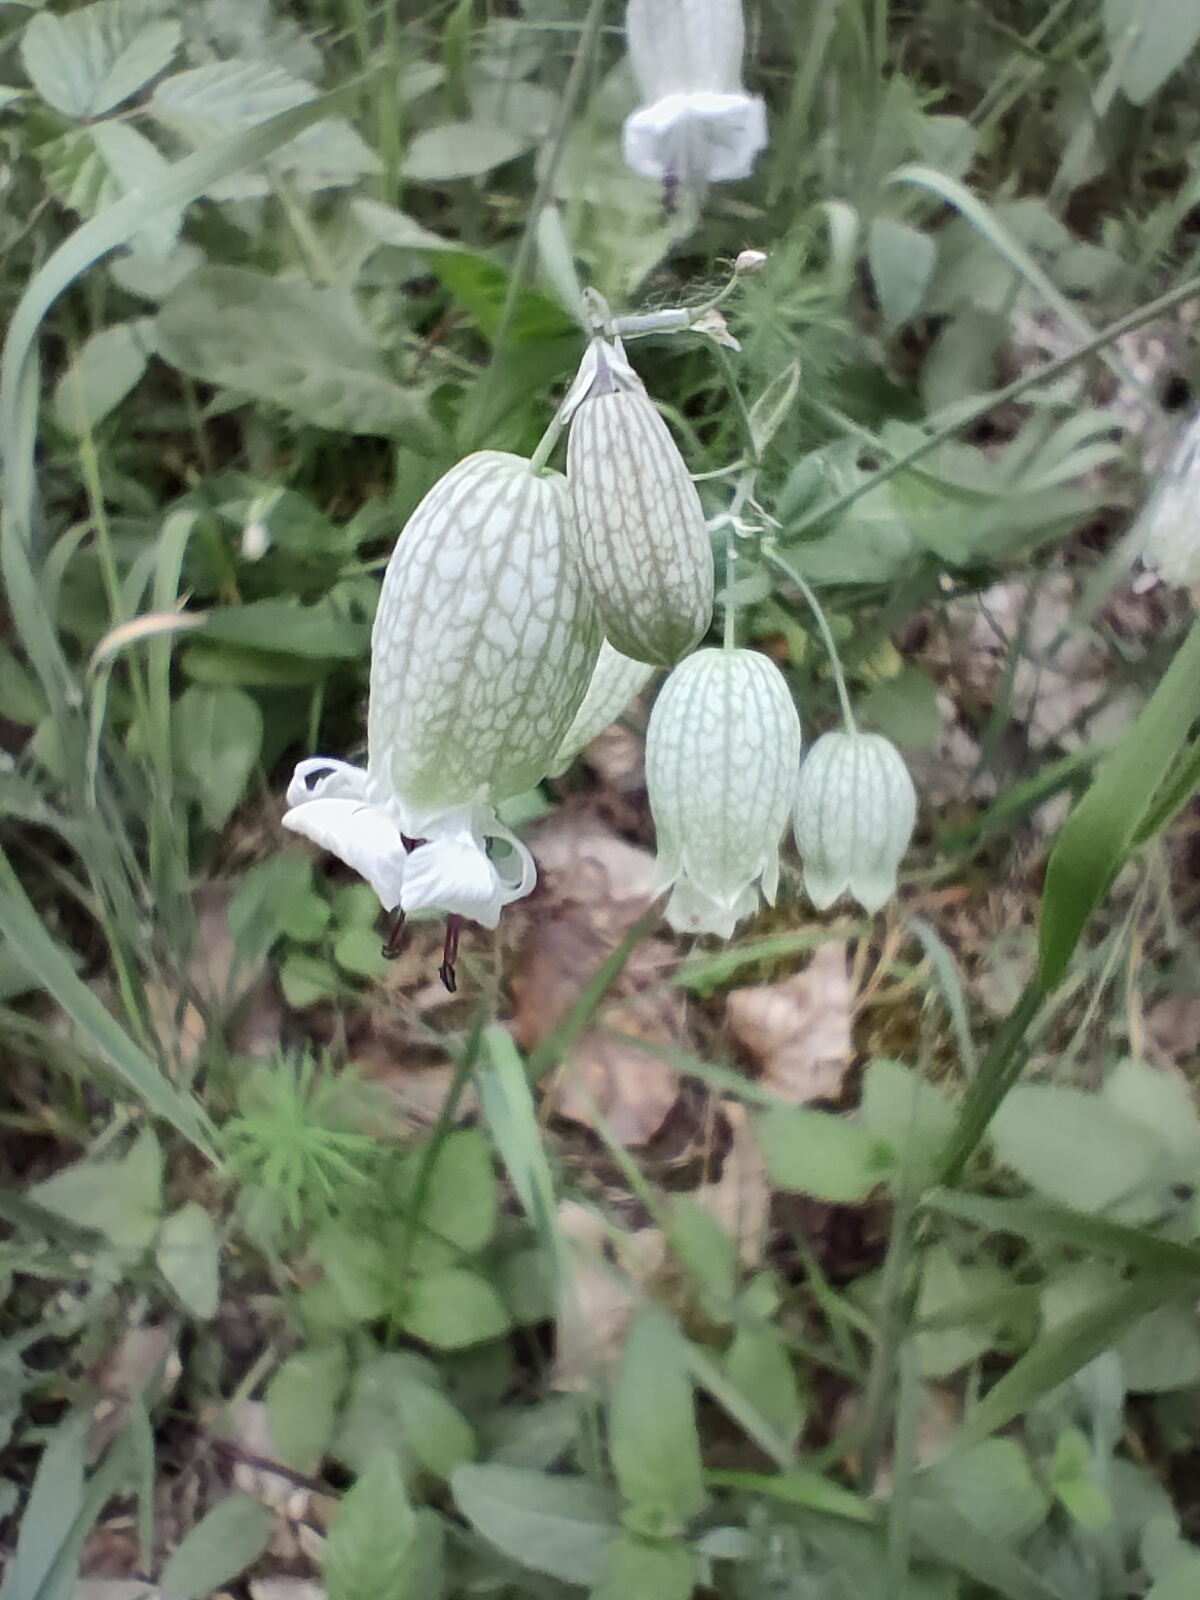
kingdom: Plantae
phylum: Tracheophyta
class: Magnoliopsida
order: Caryophyllales
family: Caryophyllaceae
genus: Silene
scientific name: Silene vulgaris
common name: Bladder campion
